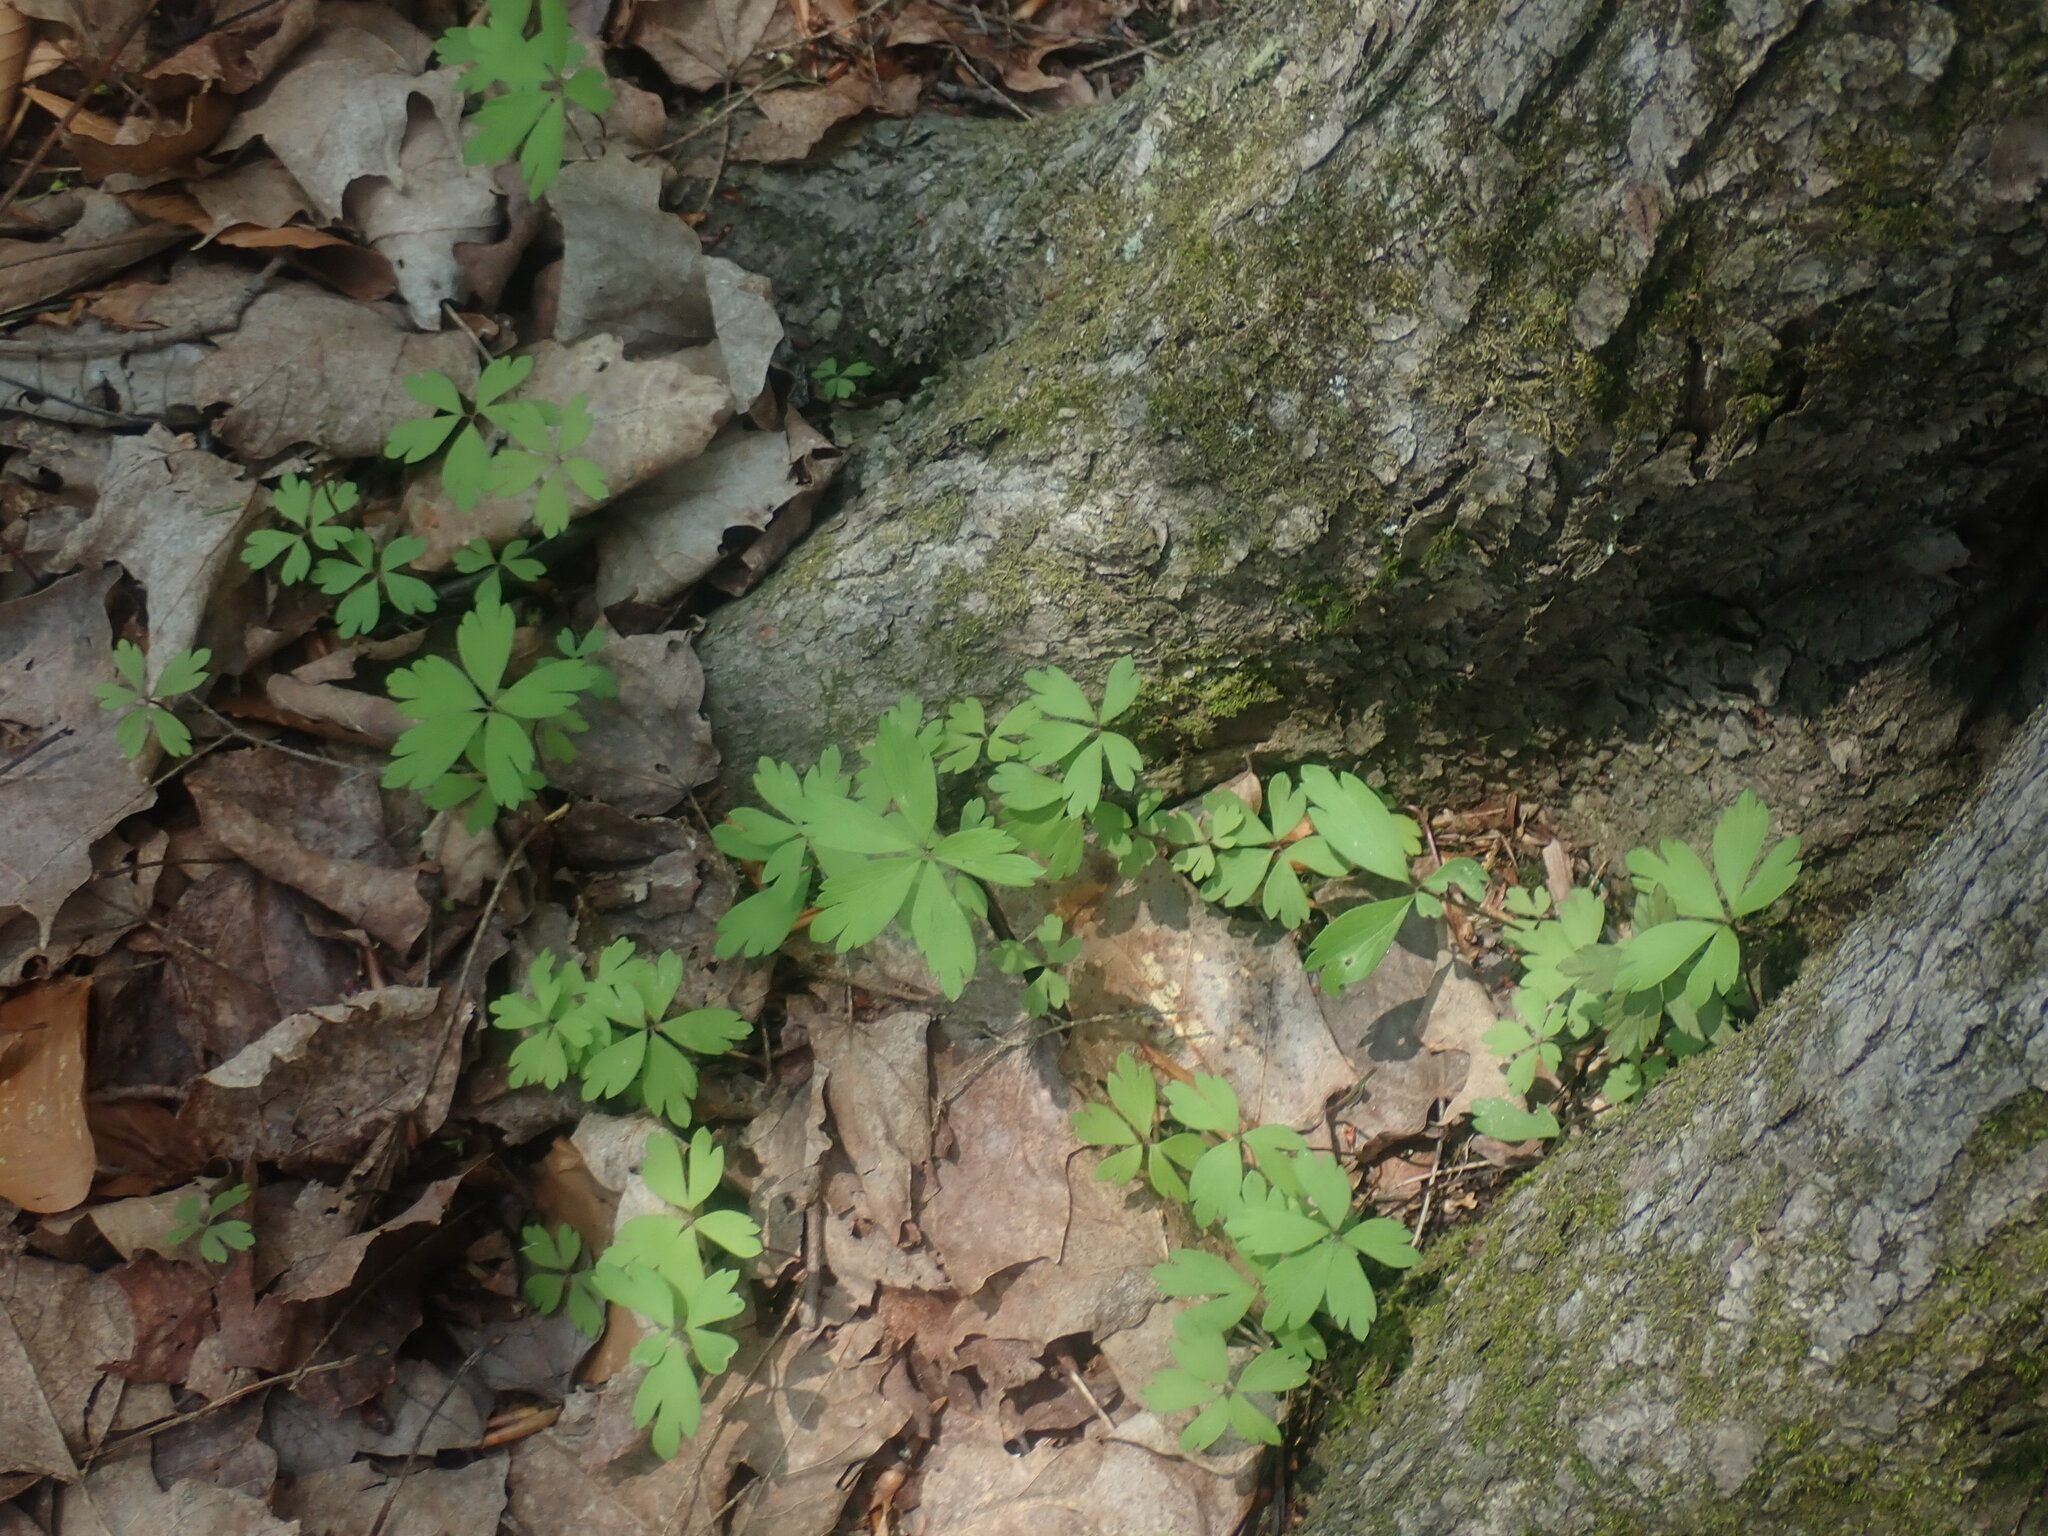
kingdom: Plantae
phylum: Tracheophyta
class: Magnoliopsida
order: Ranunculales
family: Ranunculaceae
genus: Anemone
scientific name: Anemone quinquefolia
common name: Wood anemone
